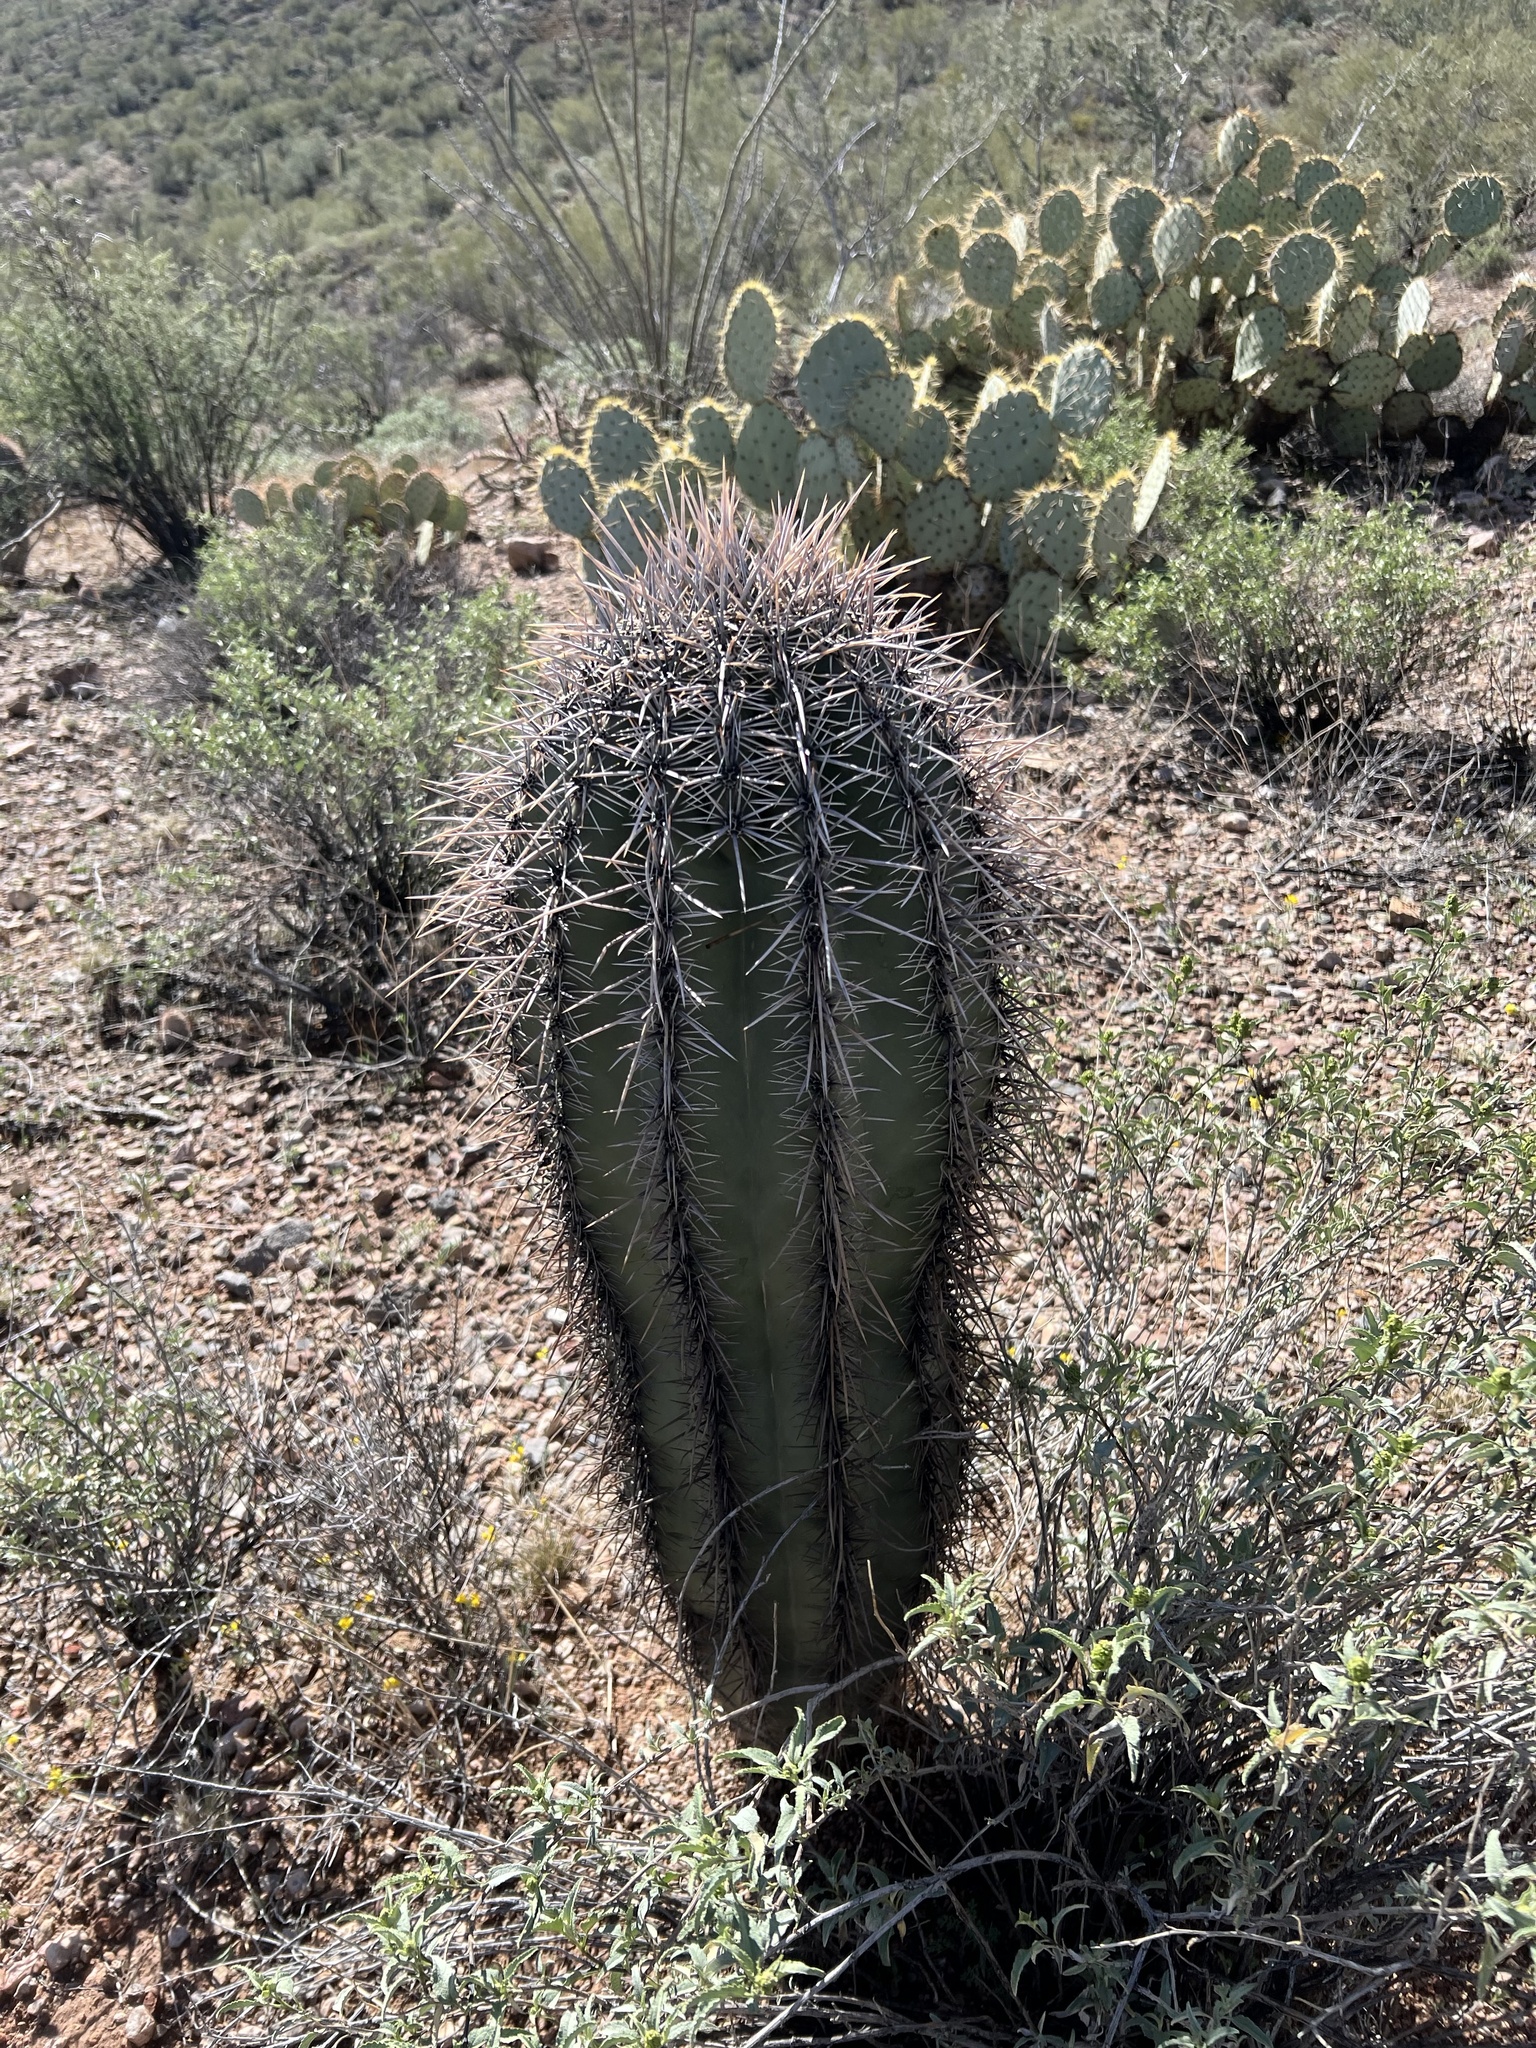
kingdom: Plantae
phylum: Tracheophyta
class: Magnoliopsida
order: Caryophyllales
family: Cactaceae
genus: Carnegiea
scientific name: Carnegiea gigantea
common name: Saguaro
